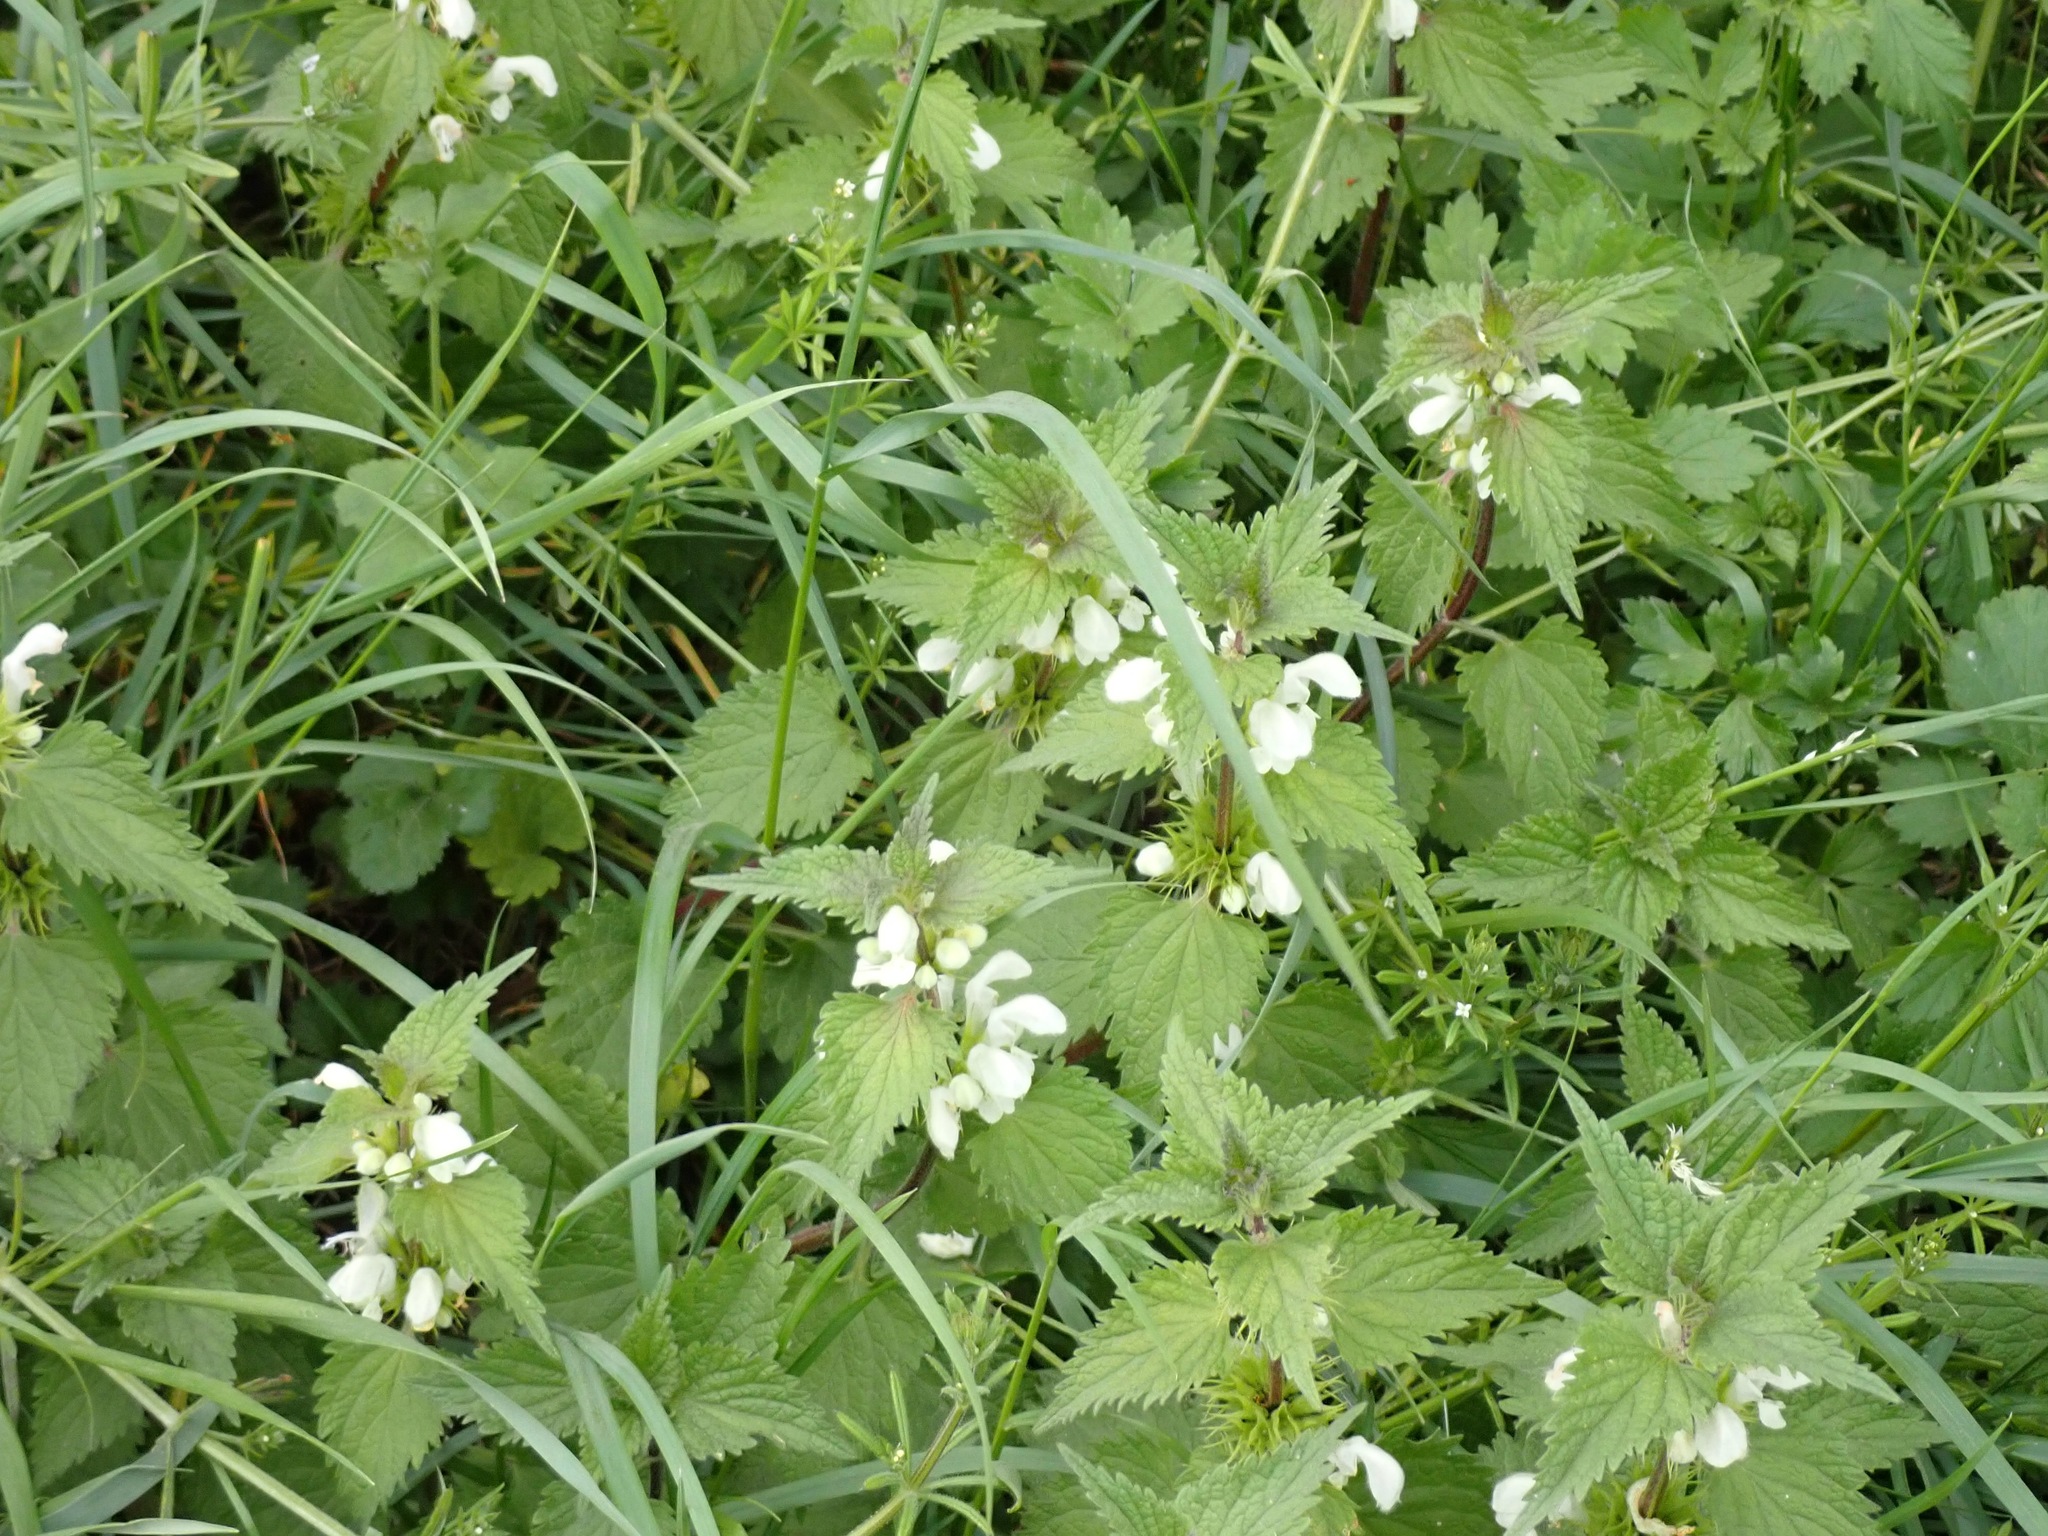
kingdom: Plantae
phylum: Tracheophyta
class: Magnoliopsida
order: Lamiales
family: Lamiaceae
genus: Lamium
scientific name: Lamium album
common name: White dead-nettle
